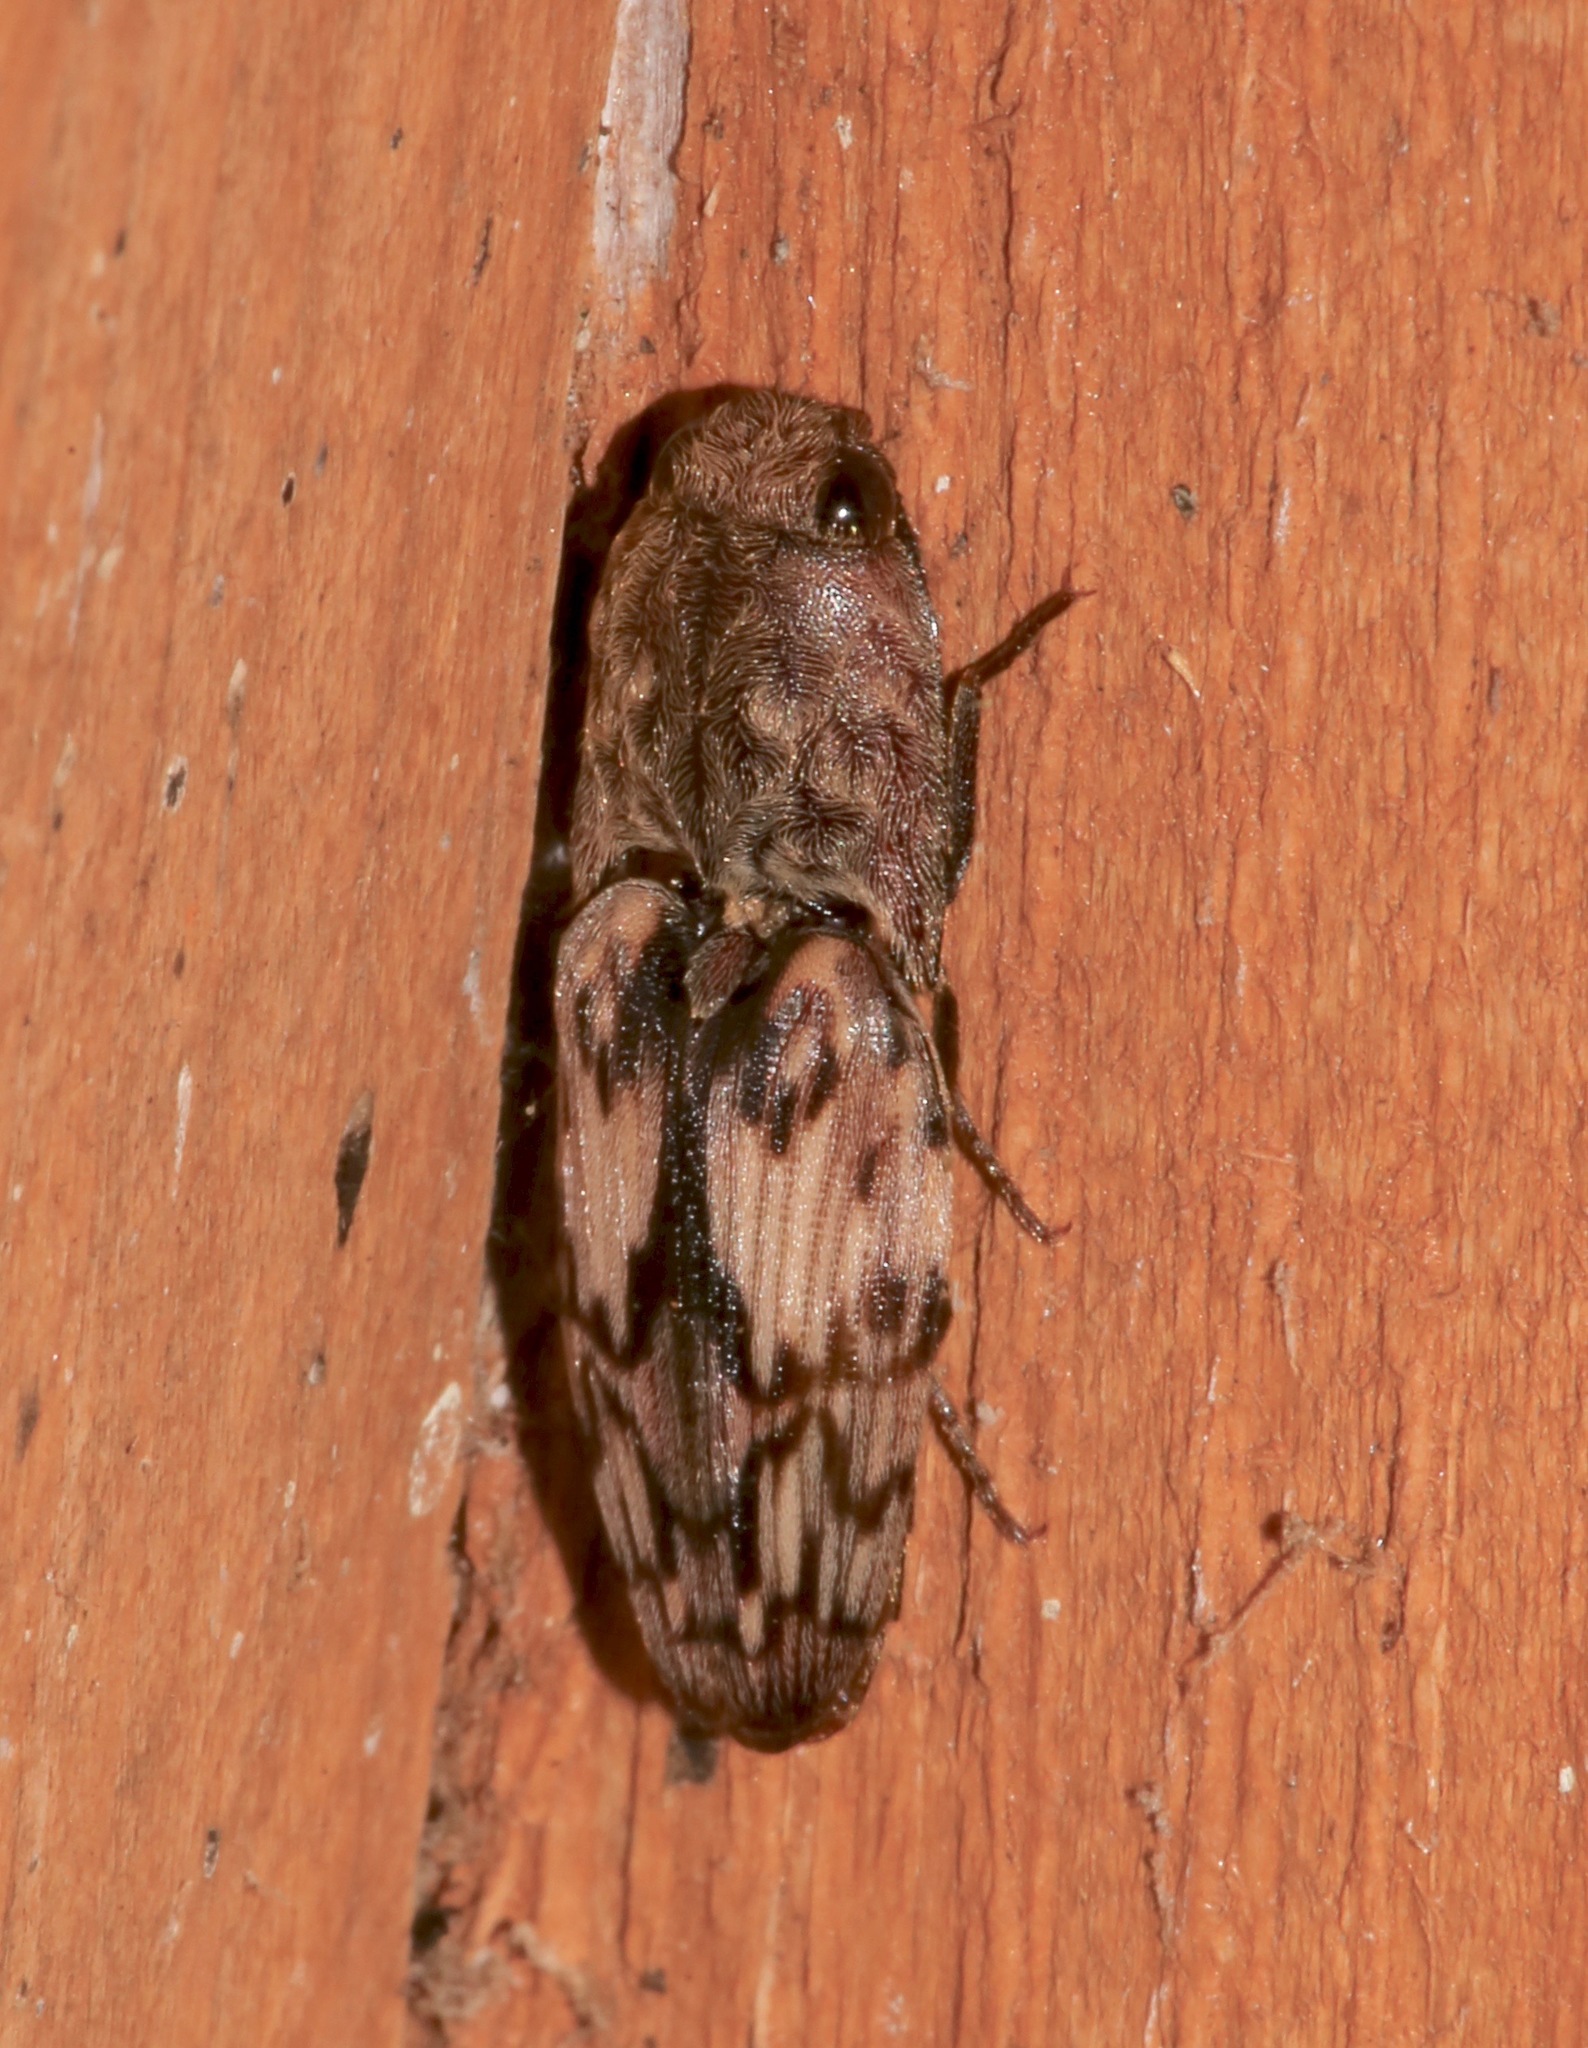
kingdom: Animalia
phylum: Arthropoda
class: Insecta
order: Coleoptera
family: Elateridae
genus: Pherhimius
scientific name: Pherhimius fascicularis
